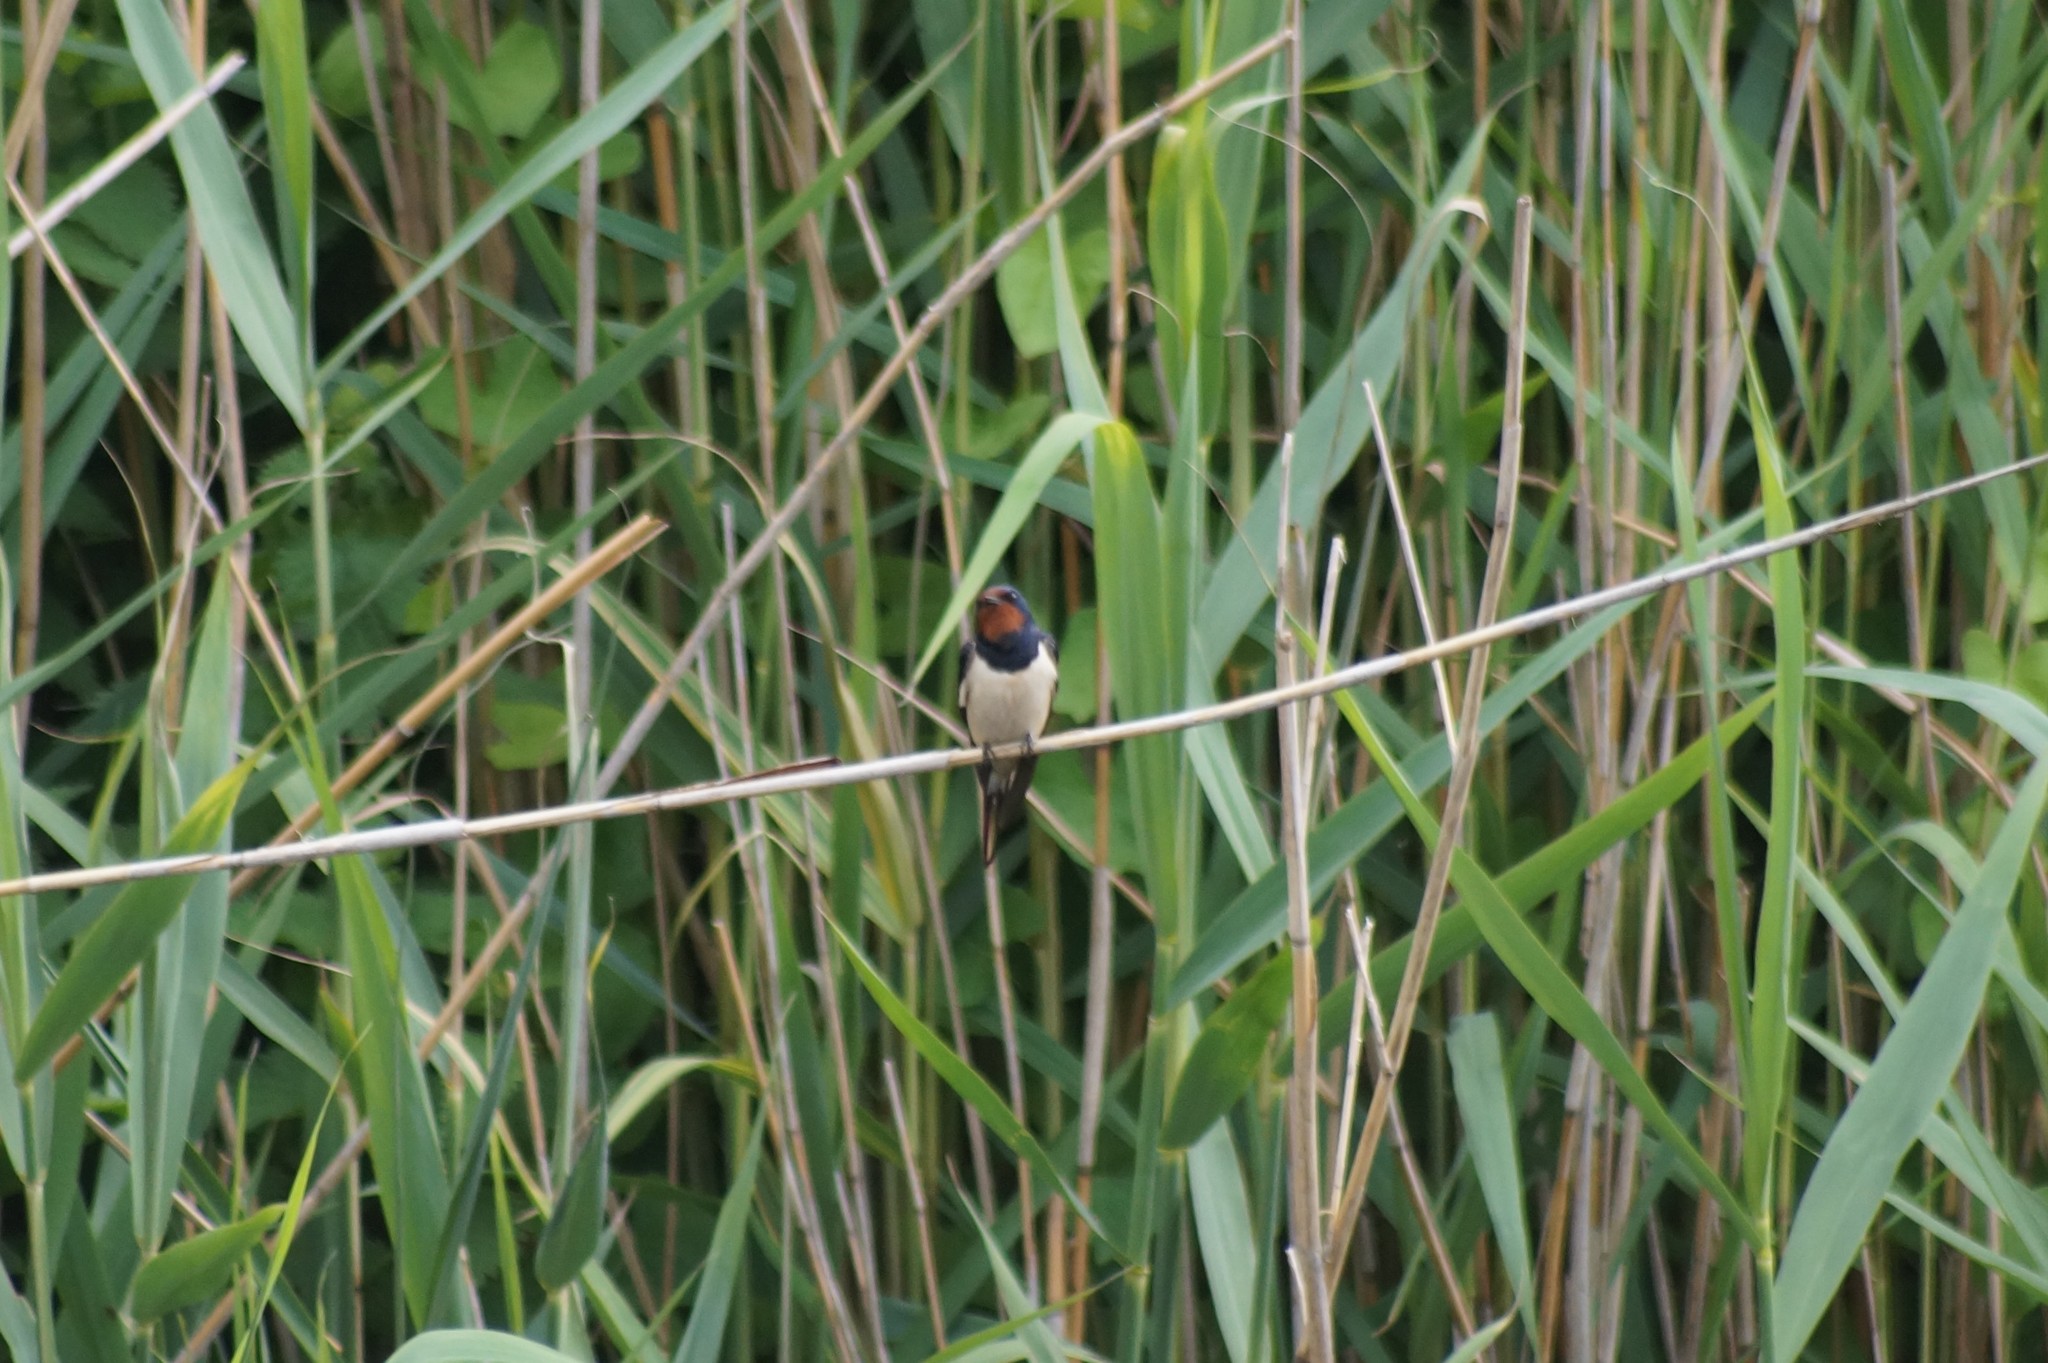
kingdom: Animalia
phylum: Chordata
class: Aves
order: Passeriformes
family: Hirundinidae
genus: Hirundo
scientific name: Hirundo rustica
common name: Barn swallow
